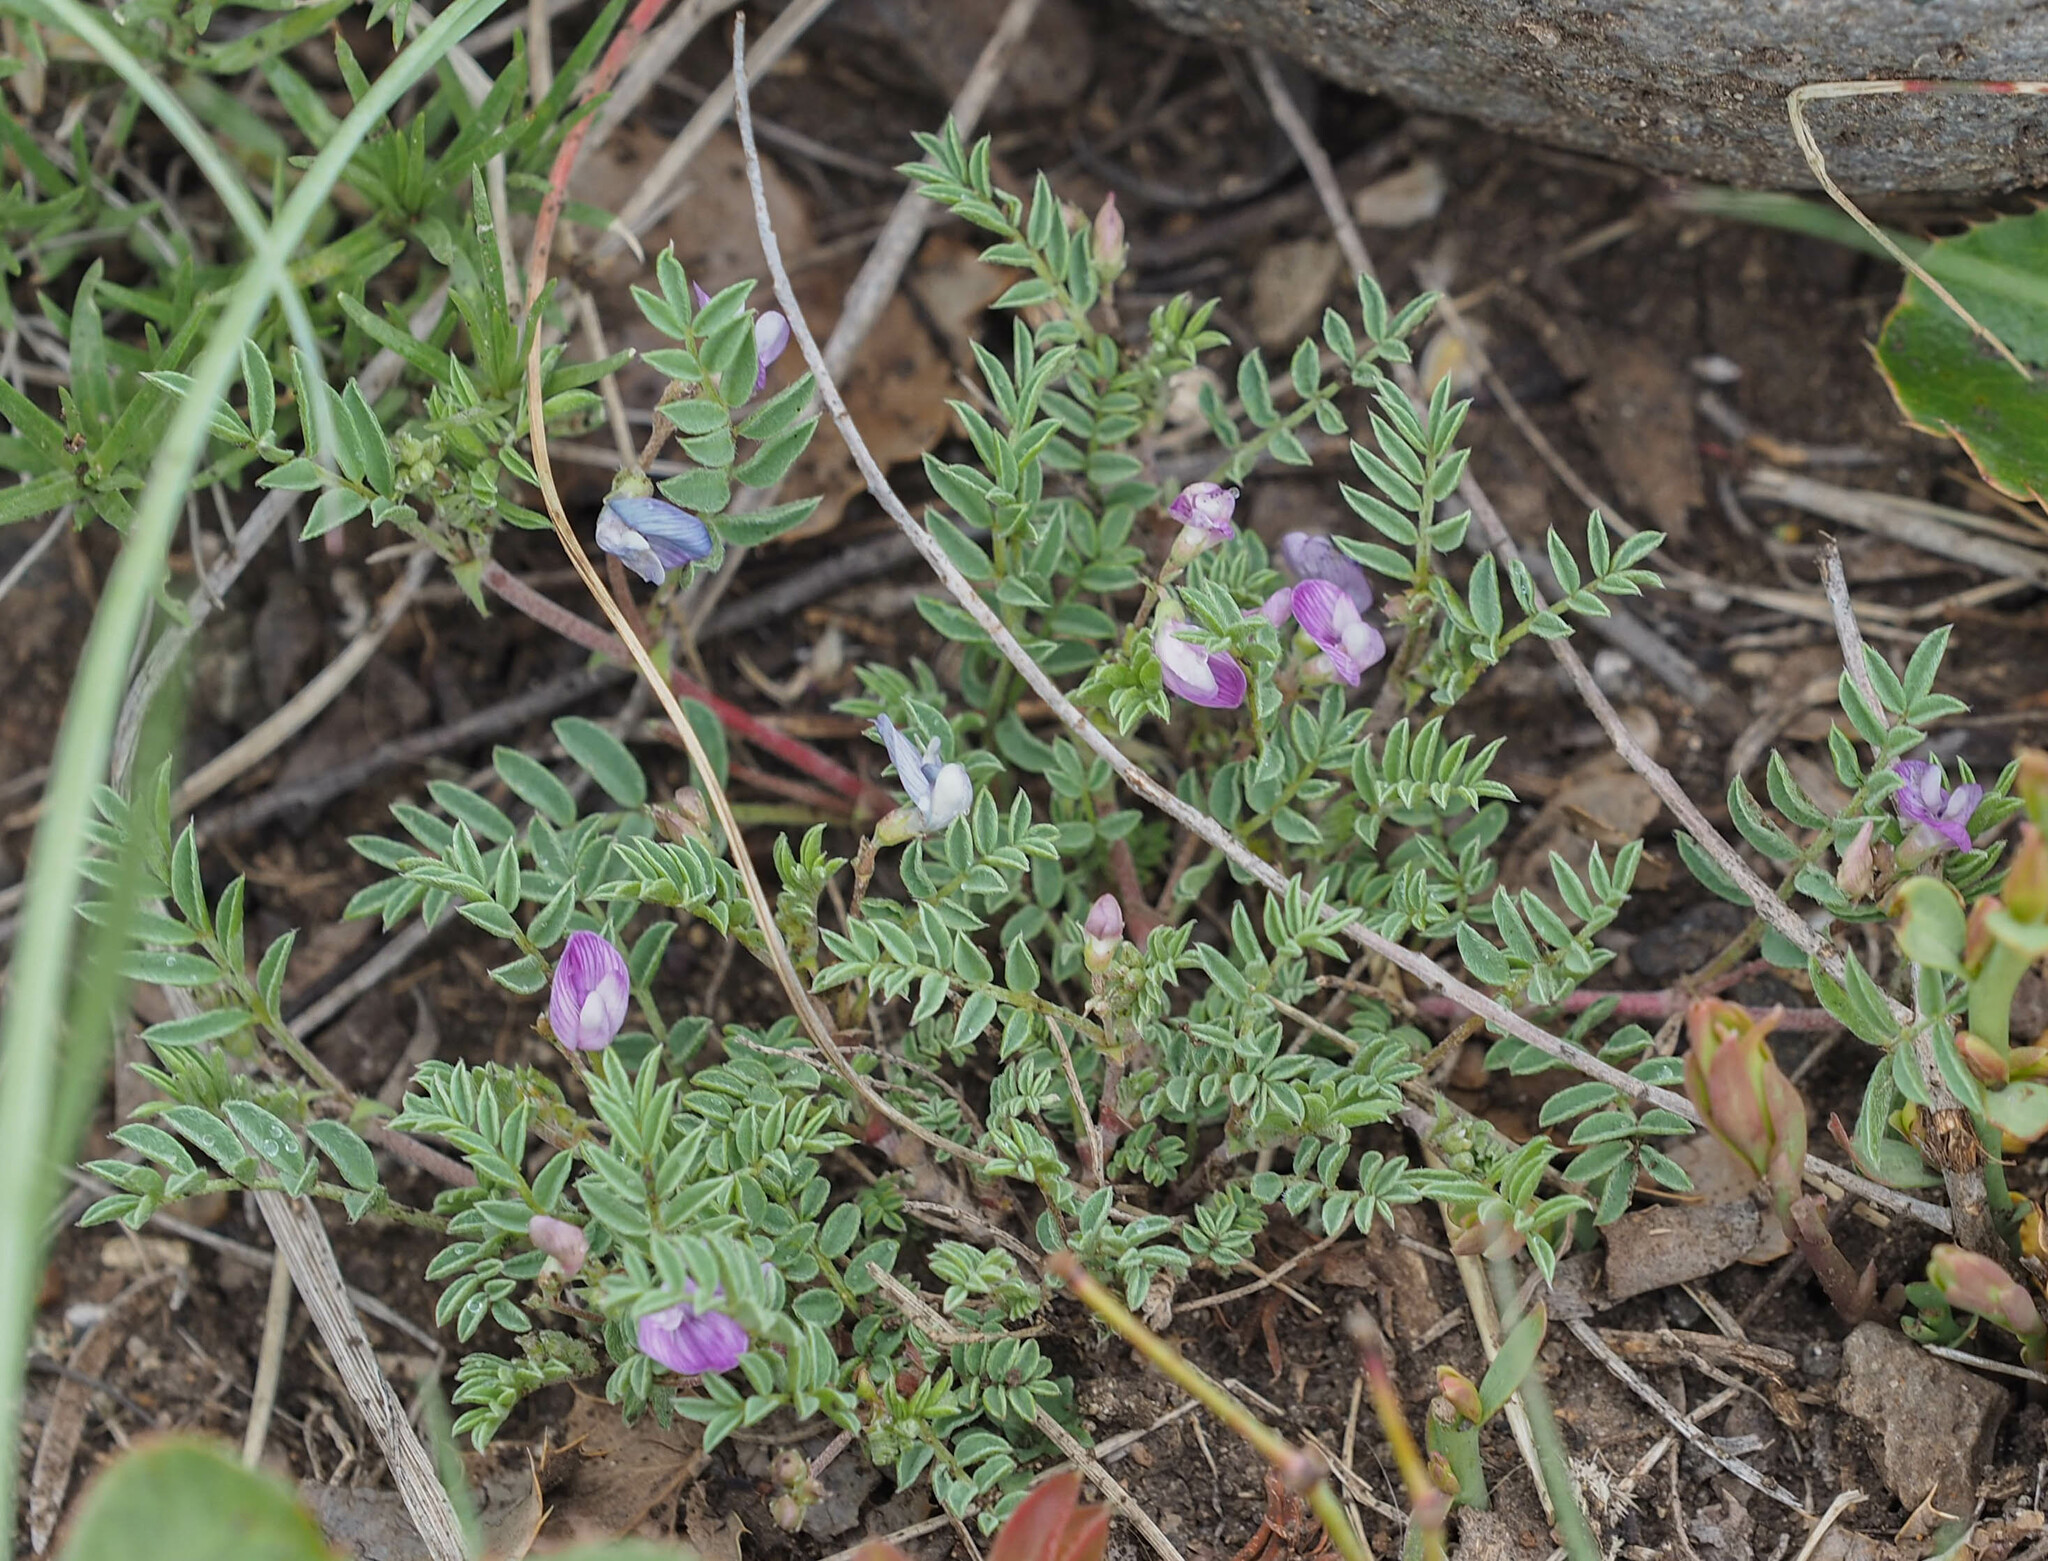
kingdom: Plantae
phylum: Tracheophyta
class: Magnoliopsida
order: Fabales
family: Fabaceae
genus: Astragalus
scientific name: Astragalus vexilliflexus
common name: Bent-flowered milk-vetch
